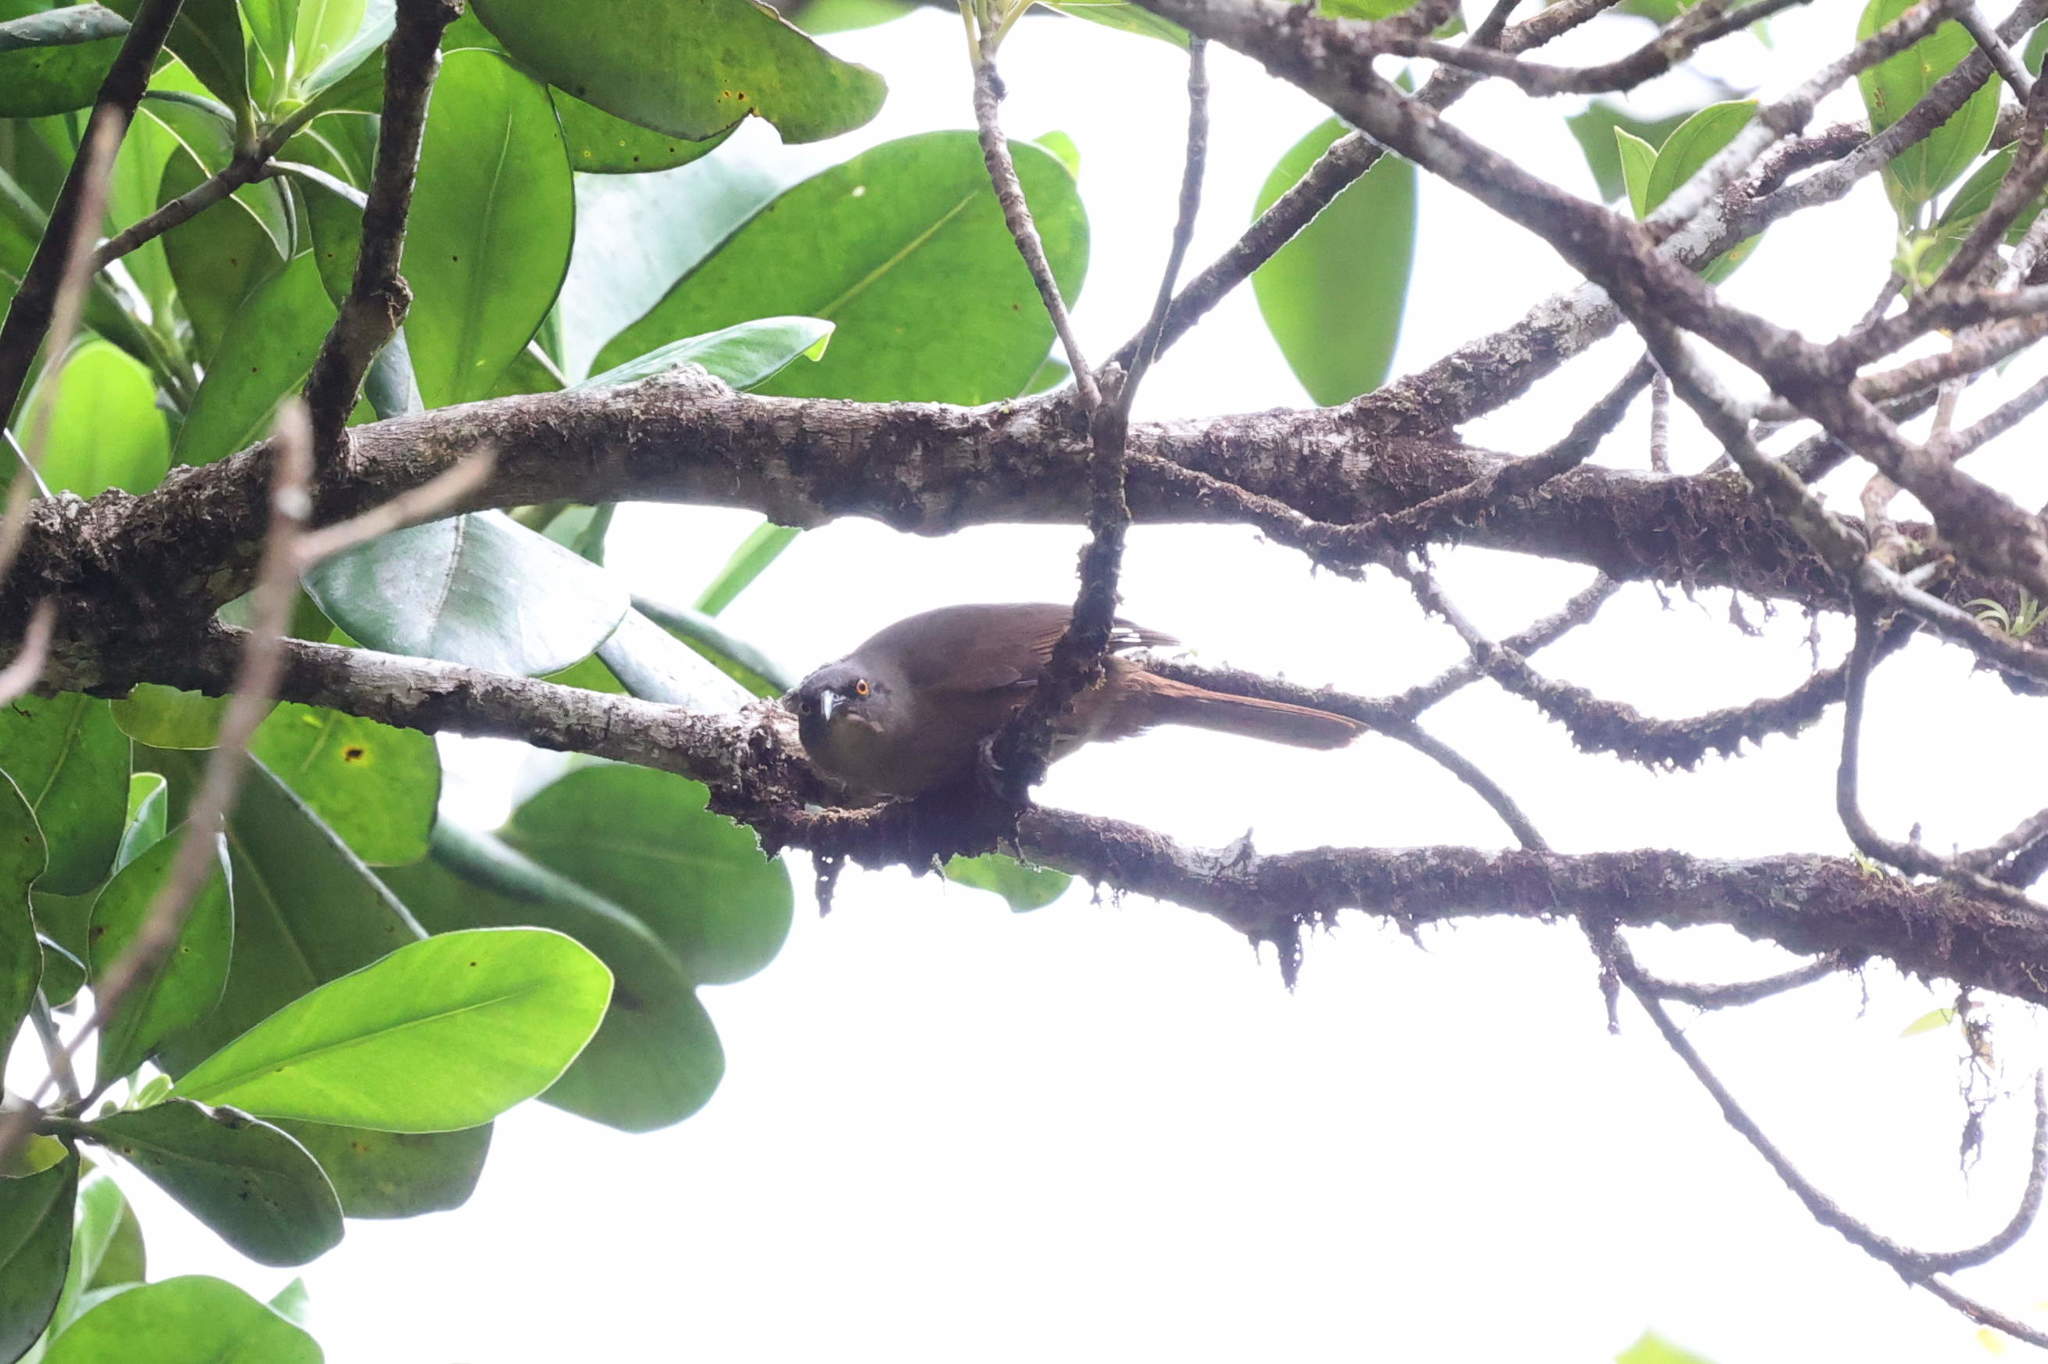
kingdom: Animalia
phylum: Chordata
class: Aves
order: Passeriformes
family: Mimidae
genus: Cinclocerthia
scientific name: Cinclocerthia ruficauda
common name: Brown trembler
